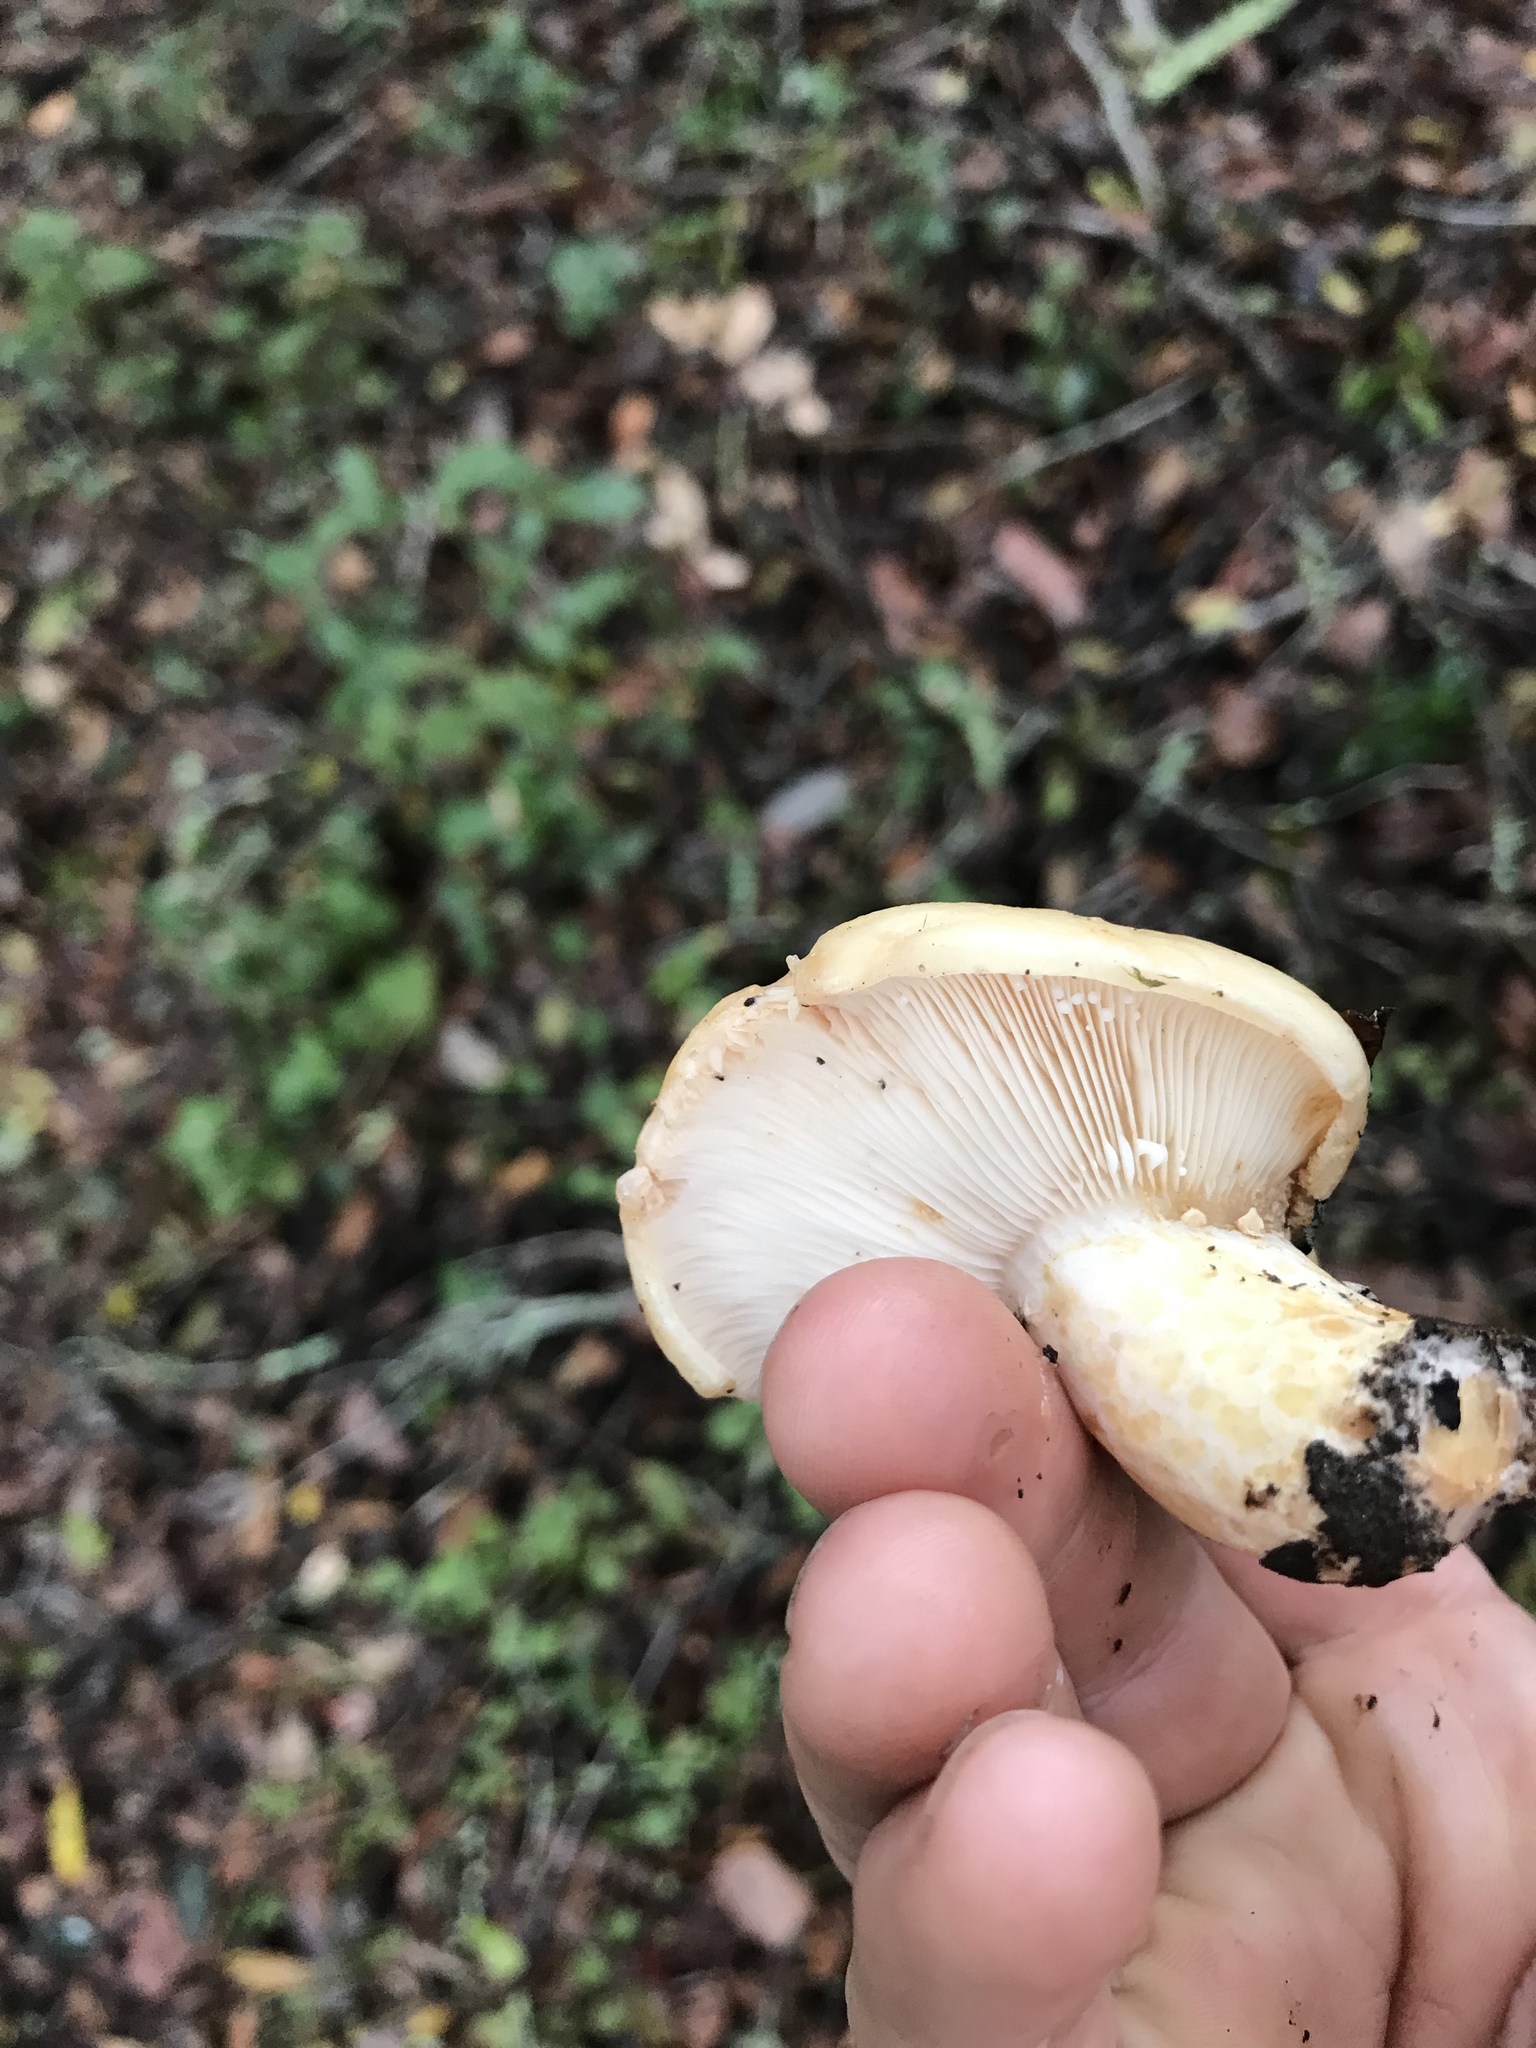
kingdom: Fungi
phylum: Basidiomycota
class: Agaricomycetes
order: Russulales
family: Russulaceae
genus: Lactarius
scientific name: Lactarius alnicola
